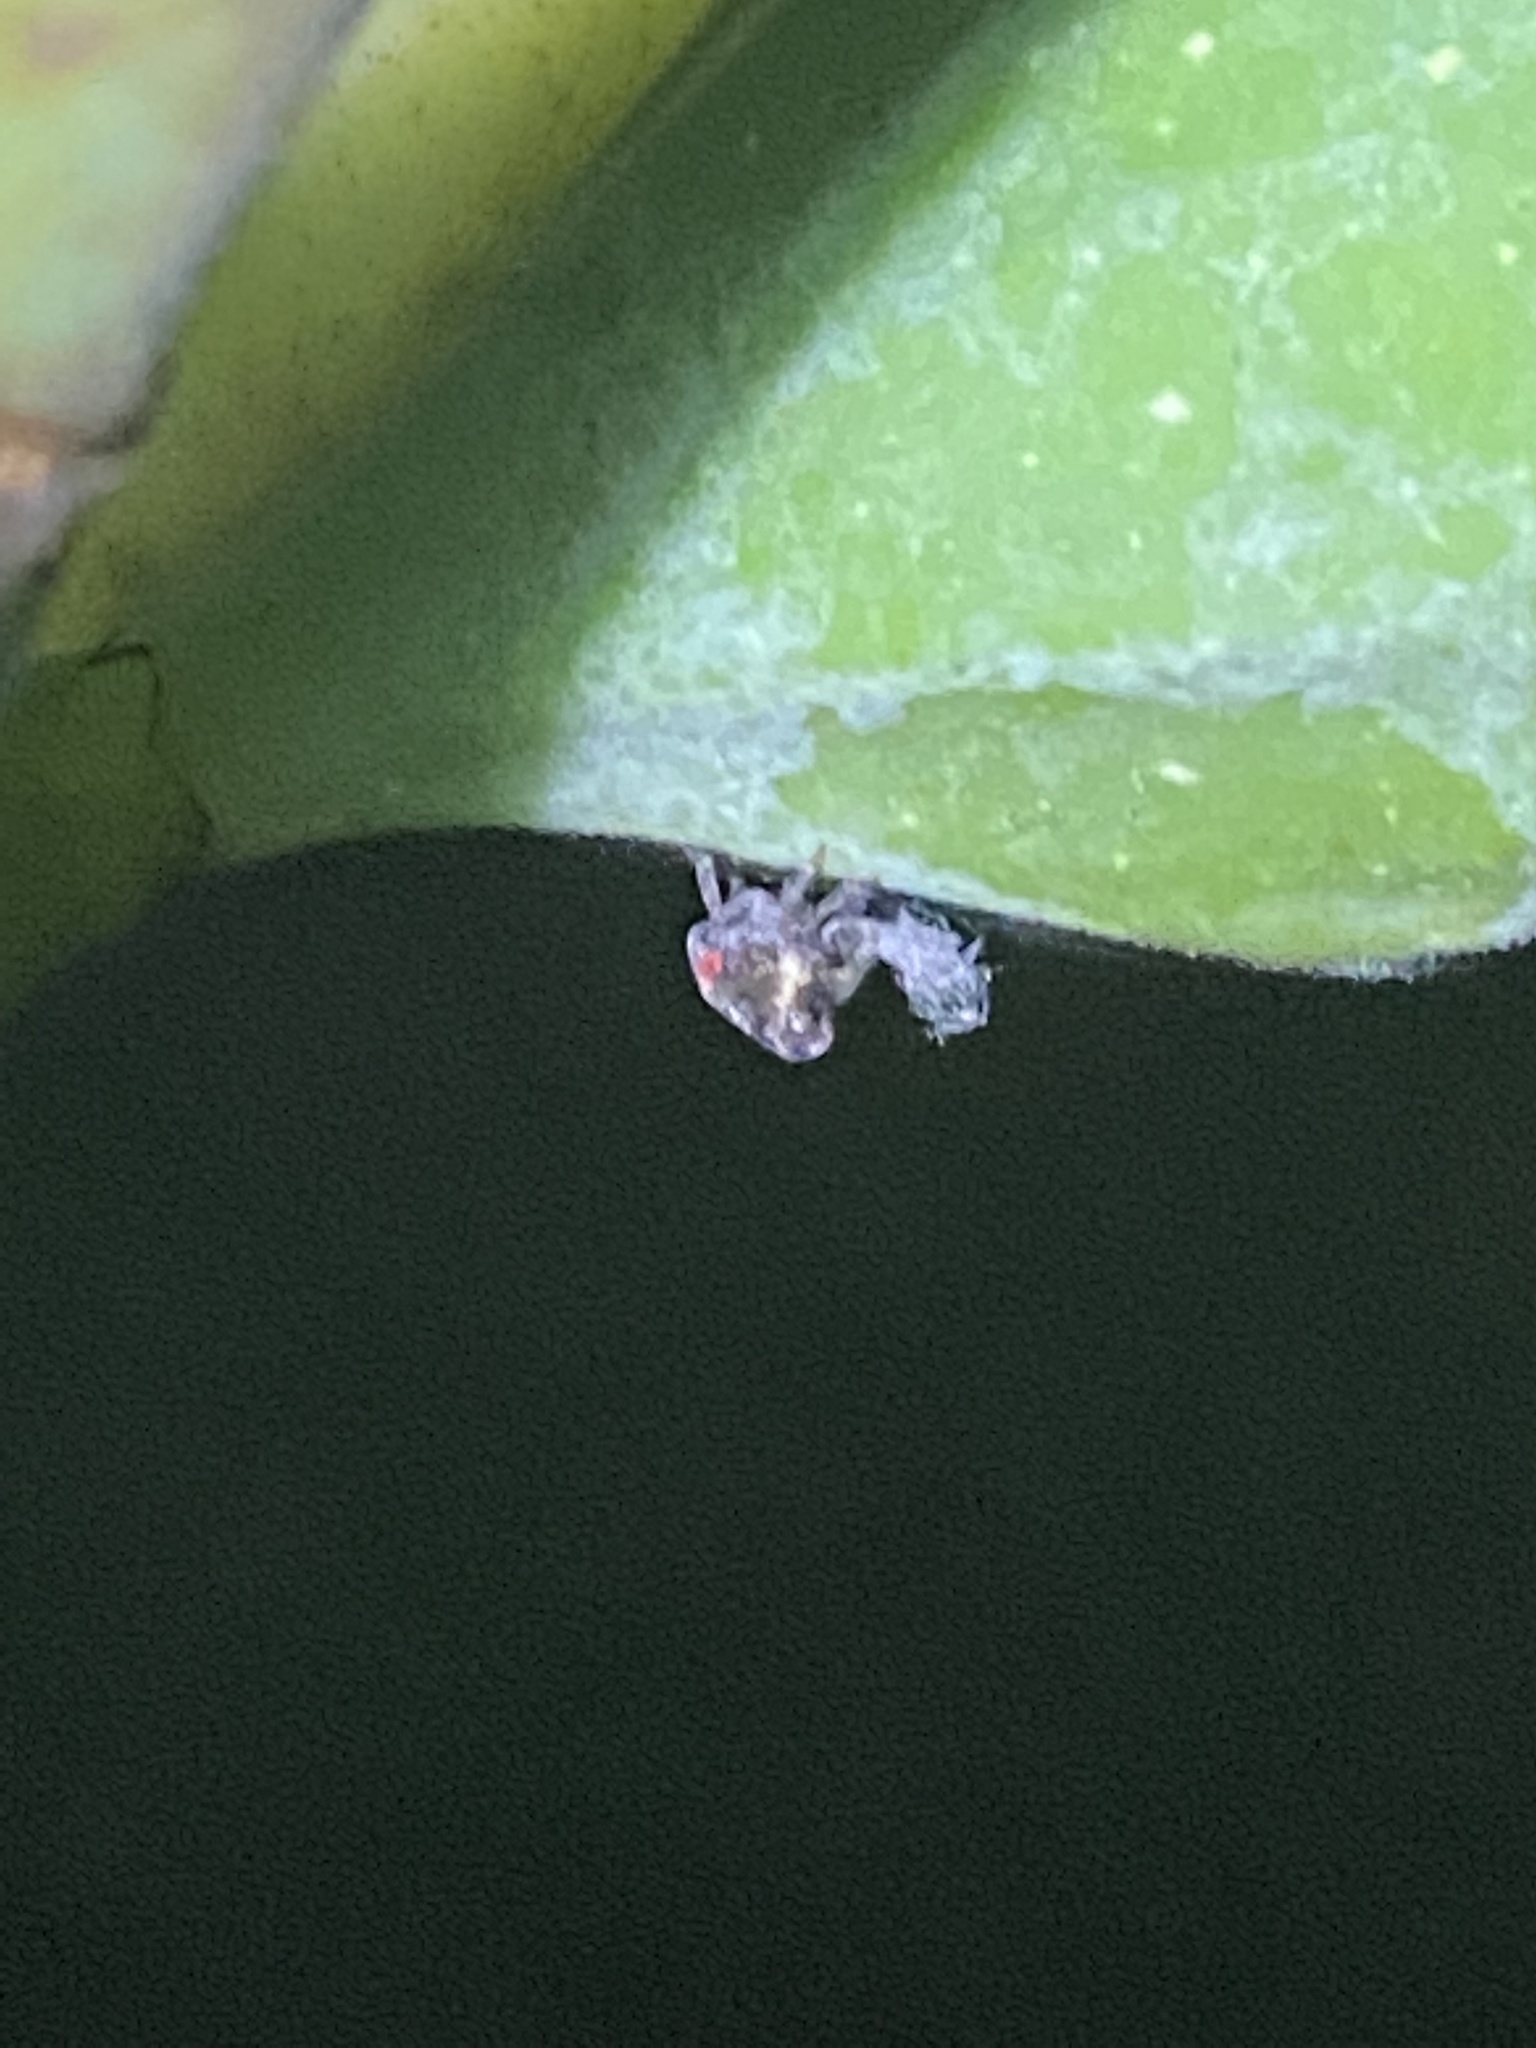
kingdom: Animalia
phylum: Arthropoda
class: Insecta
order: Hemiptera
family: Acanaloniidae
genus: Acanalonia
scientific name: Acanalonia bivittata
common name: Two-striped planthopper
